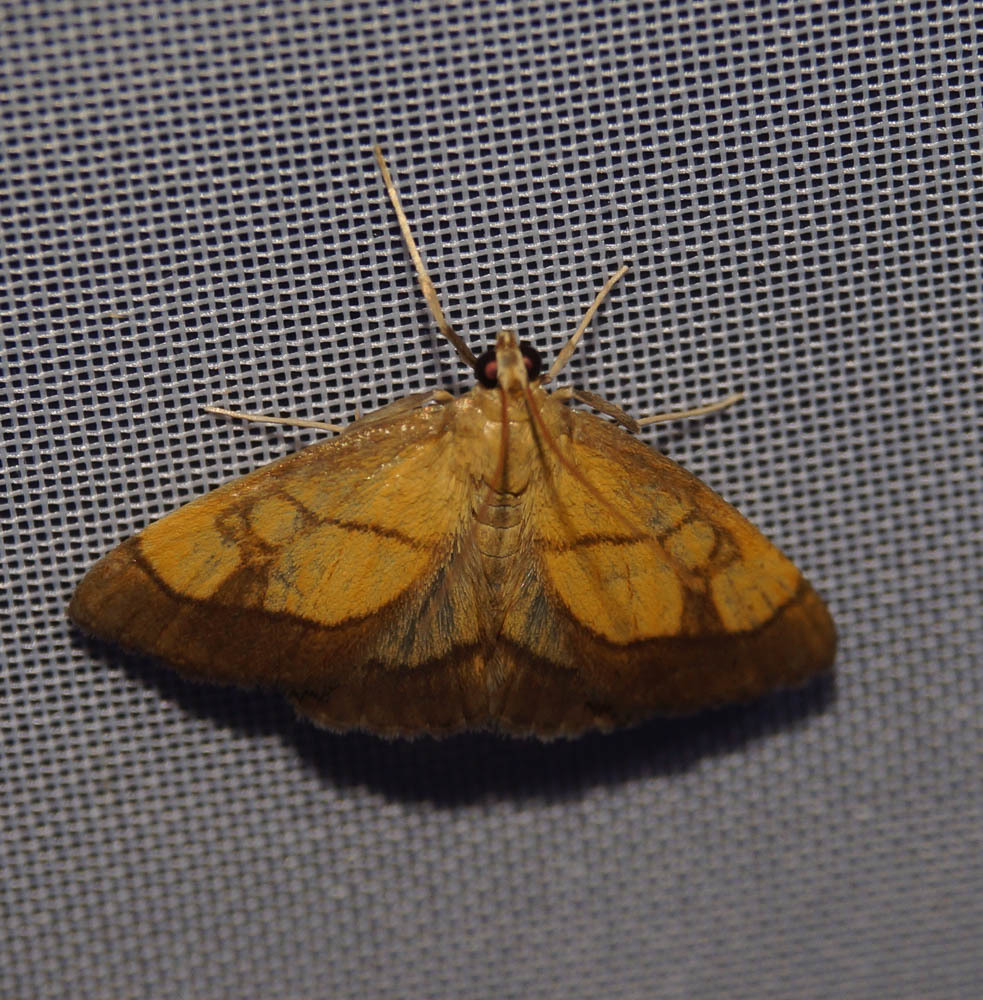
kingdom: Animalia
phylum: Arthropoda
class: Insecta
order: Lepidoptera
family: Crambidae
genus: Evergestis
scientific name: Evergestis limbata
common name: Dark bordered pearl
